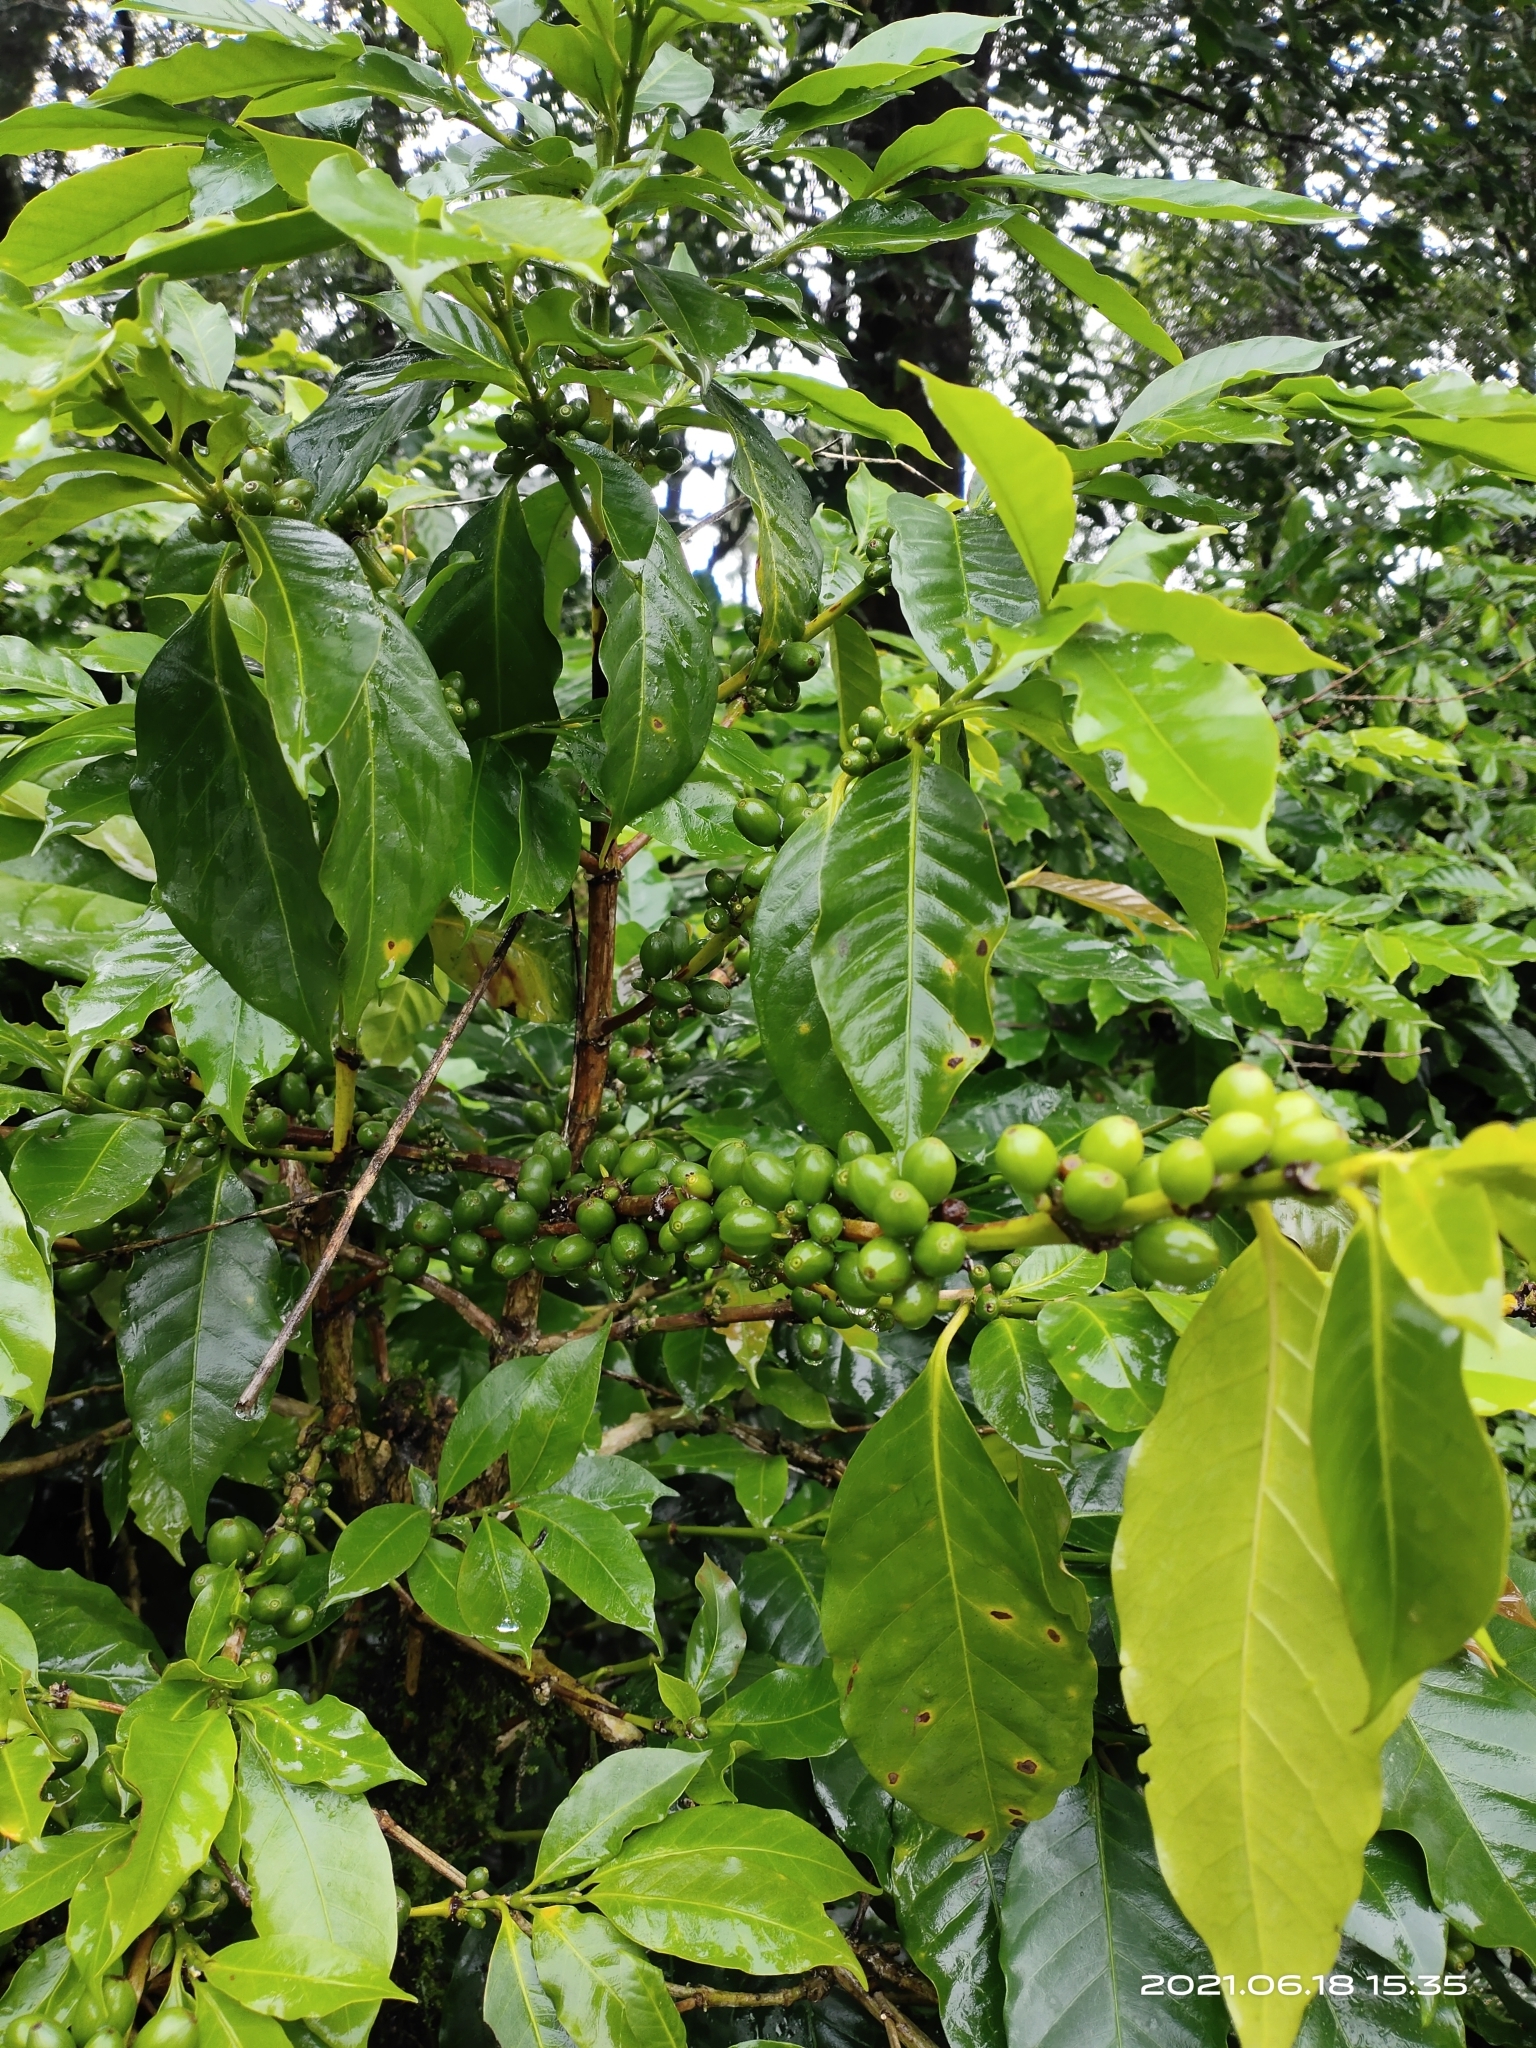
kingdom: Plantae
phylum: Tracheophyta
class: Magnoliopsida
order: Gentianales
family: Rubiaceae
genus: Coffea
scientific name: Coffea arabica
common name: Coffee
